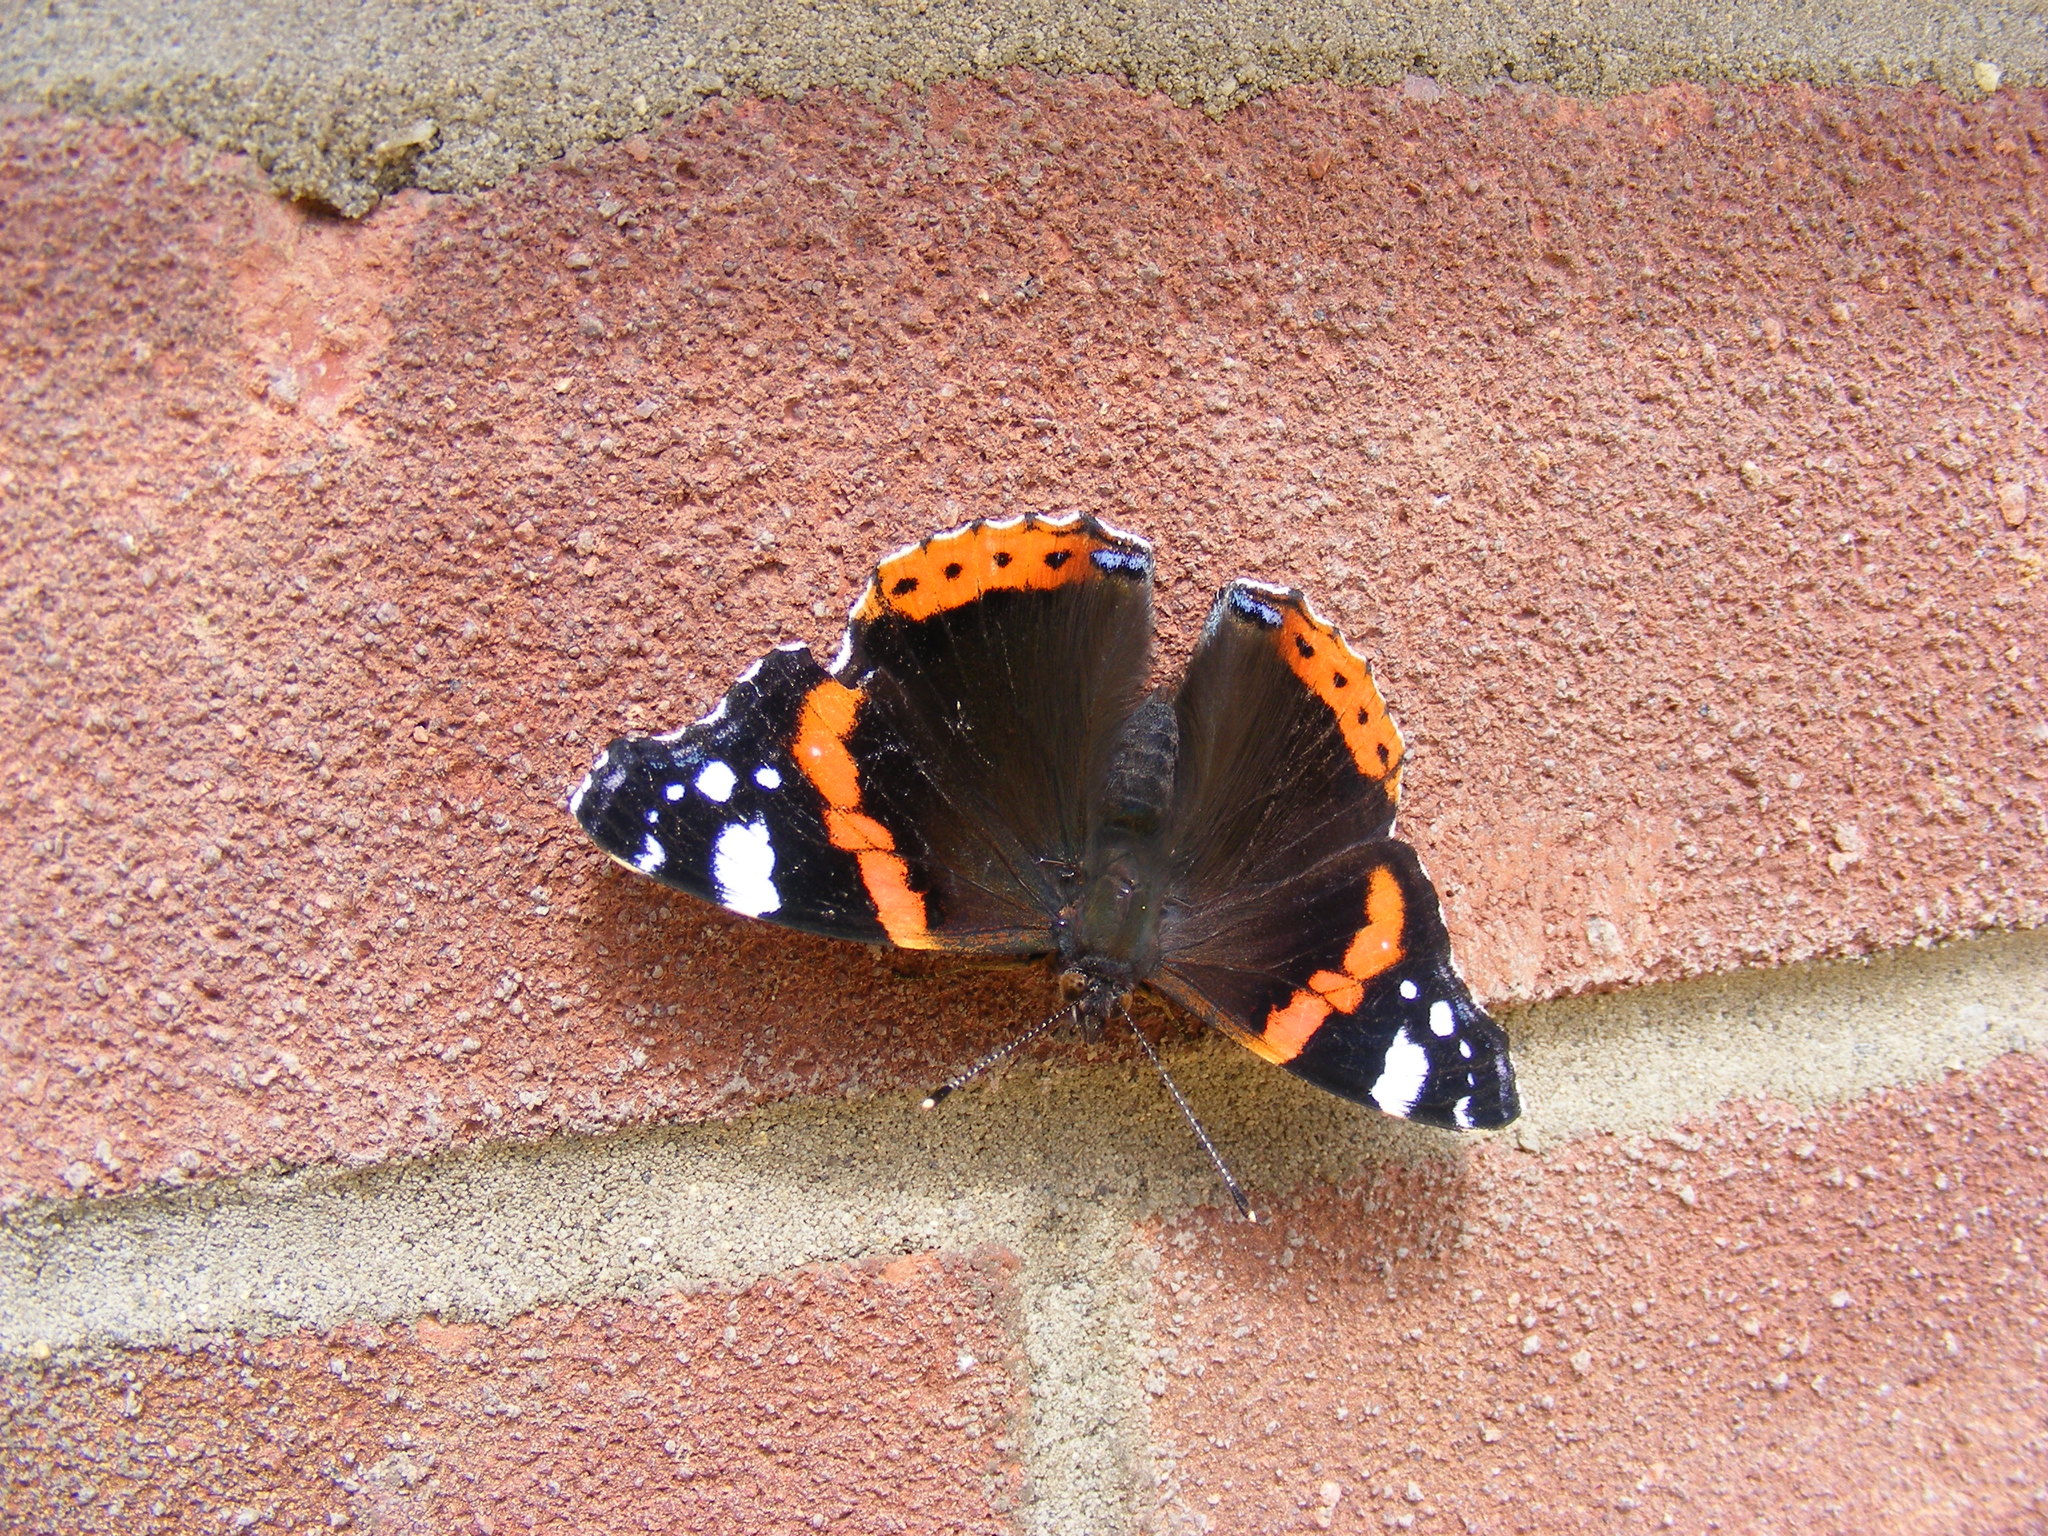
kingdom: Animalia
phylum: Arthropoda
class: Insecta
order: Lepidoptera
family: Nymphalidae
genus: Vanessa
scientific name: Vanessa atalanta
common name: Red admiral
